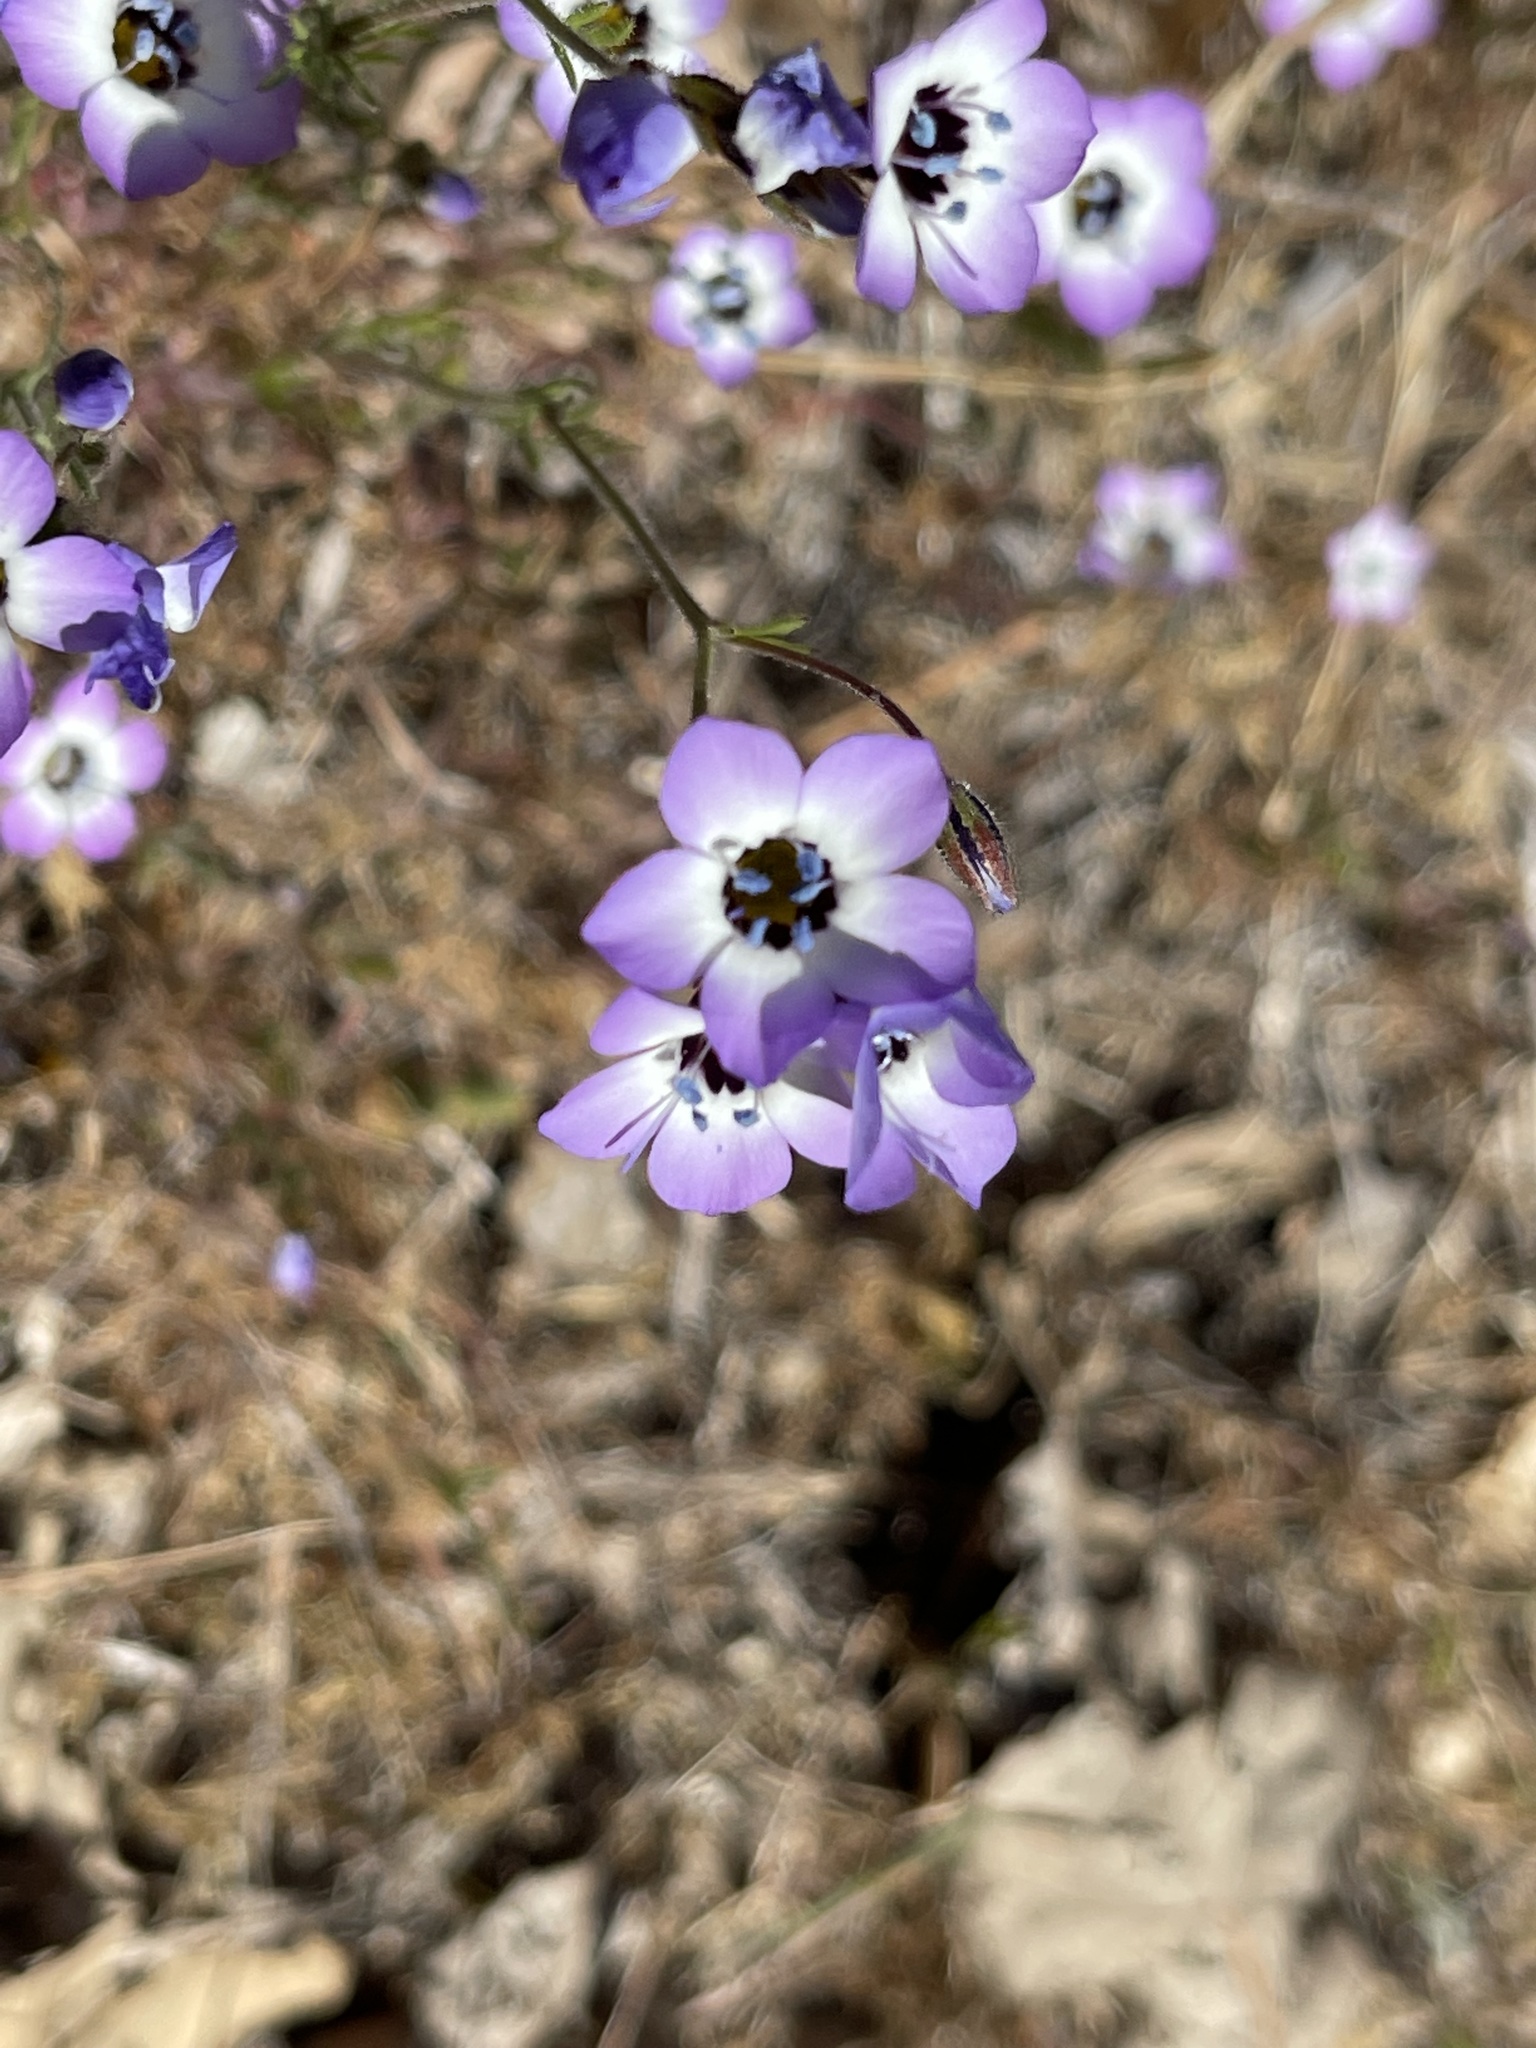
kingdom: Plantae
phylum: Tracheophyta
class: Magnoliopsida
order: Ericales
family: Polemoniaceae
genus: Gilia
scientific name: Gilia tricolor
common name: Bird's-eyes
